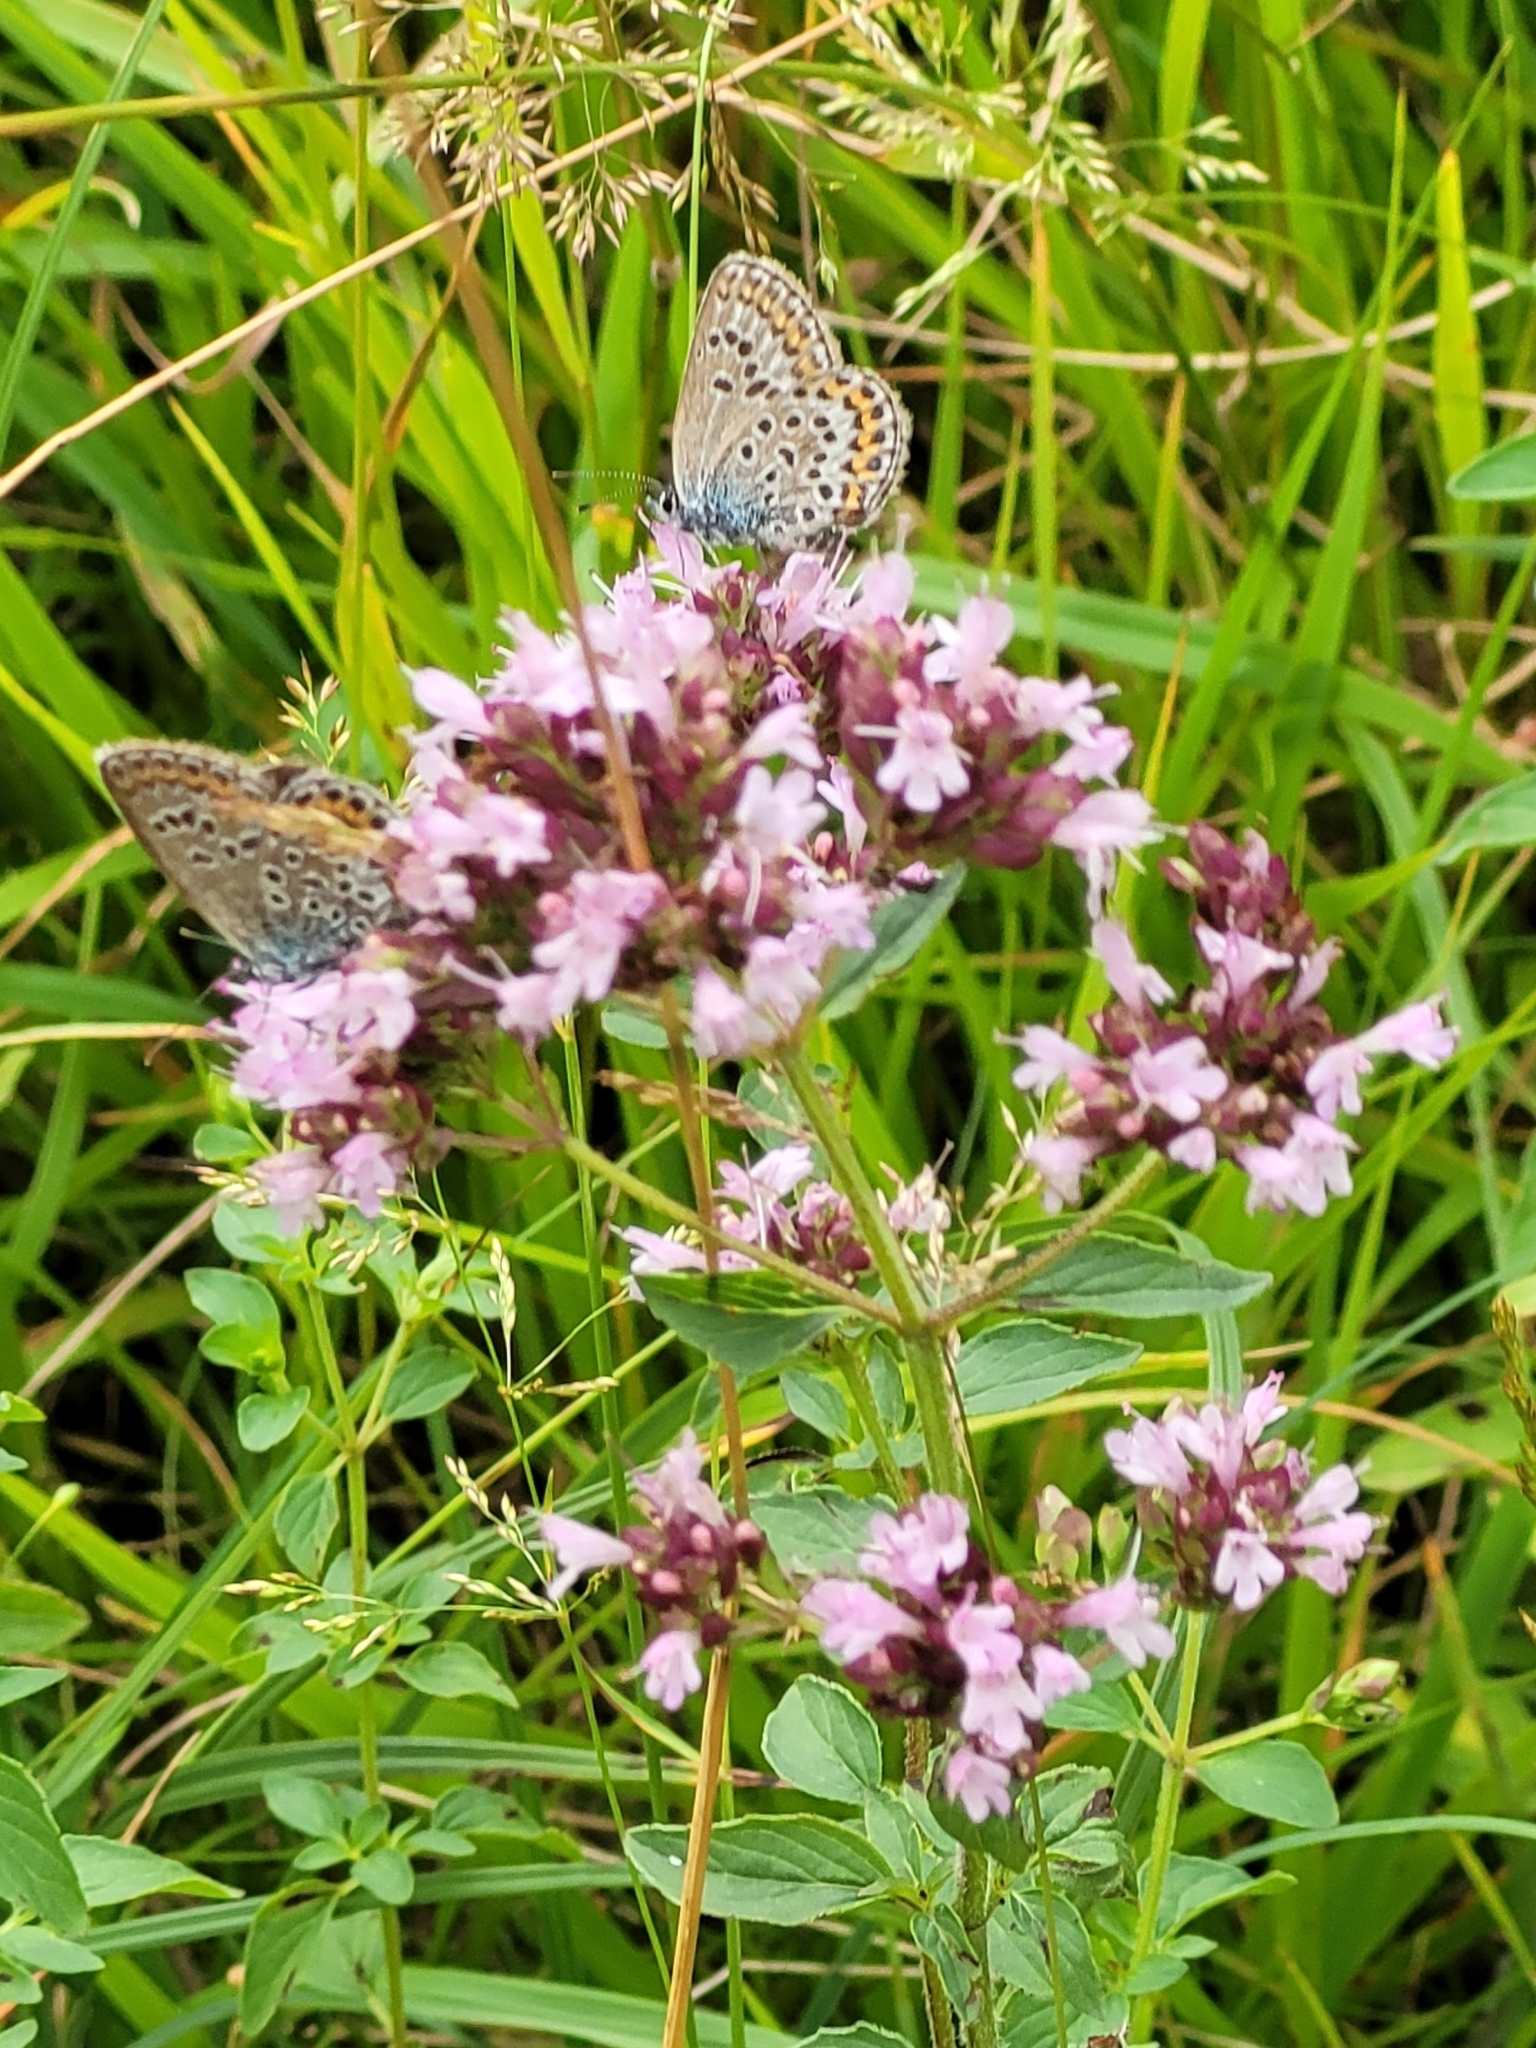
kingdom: Plantae
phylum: Tracheophyta
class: Magnoliopsida
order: Lamiales
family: Lamiaceae
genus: Origanum
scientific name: Origanum vulgare
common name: Wild marjoram
